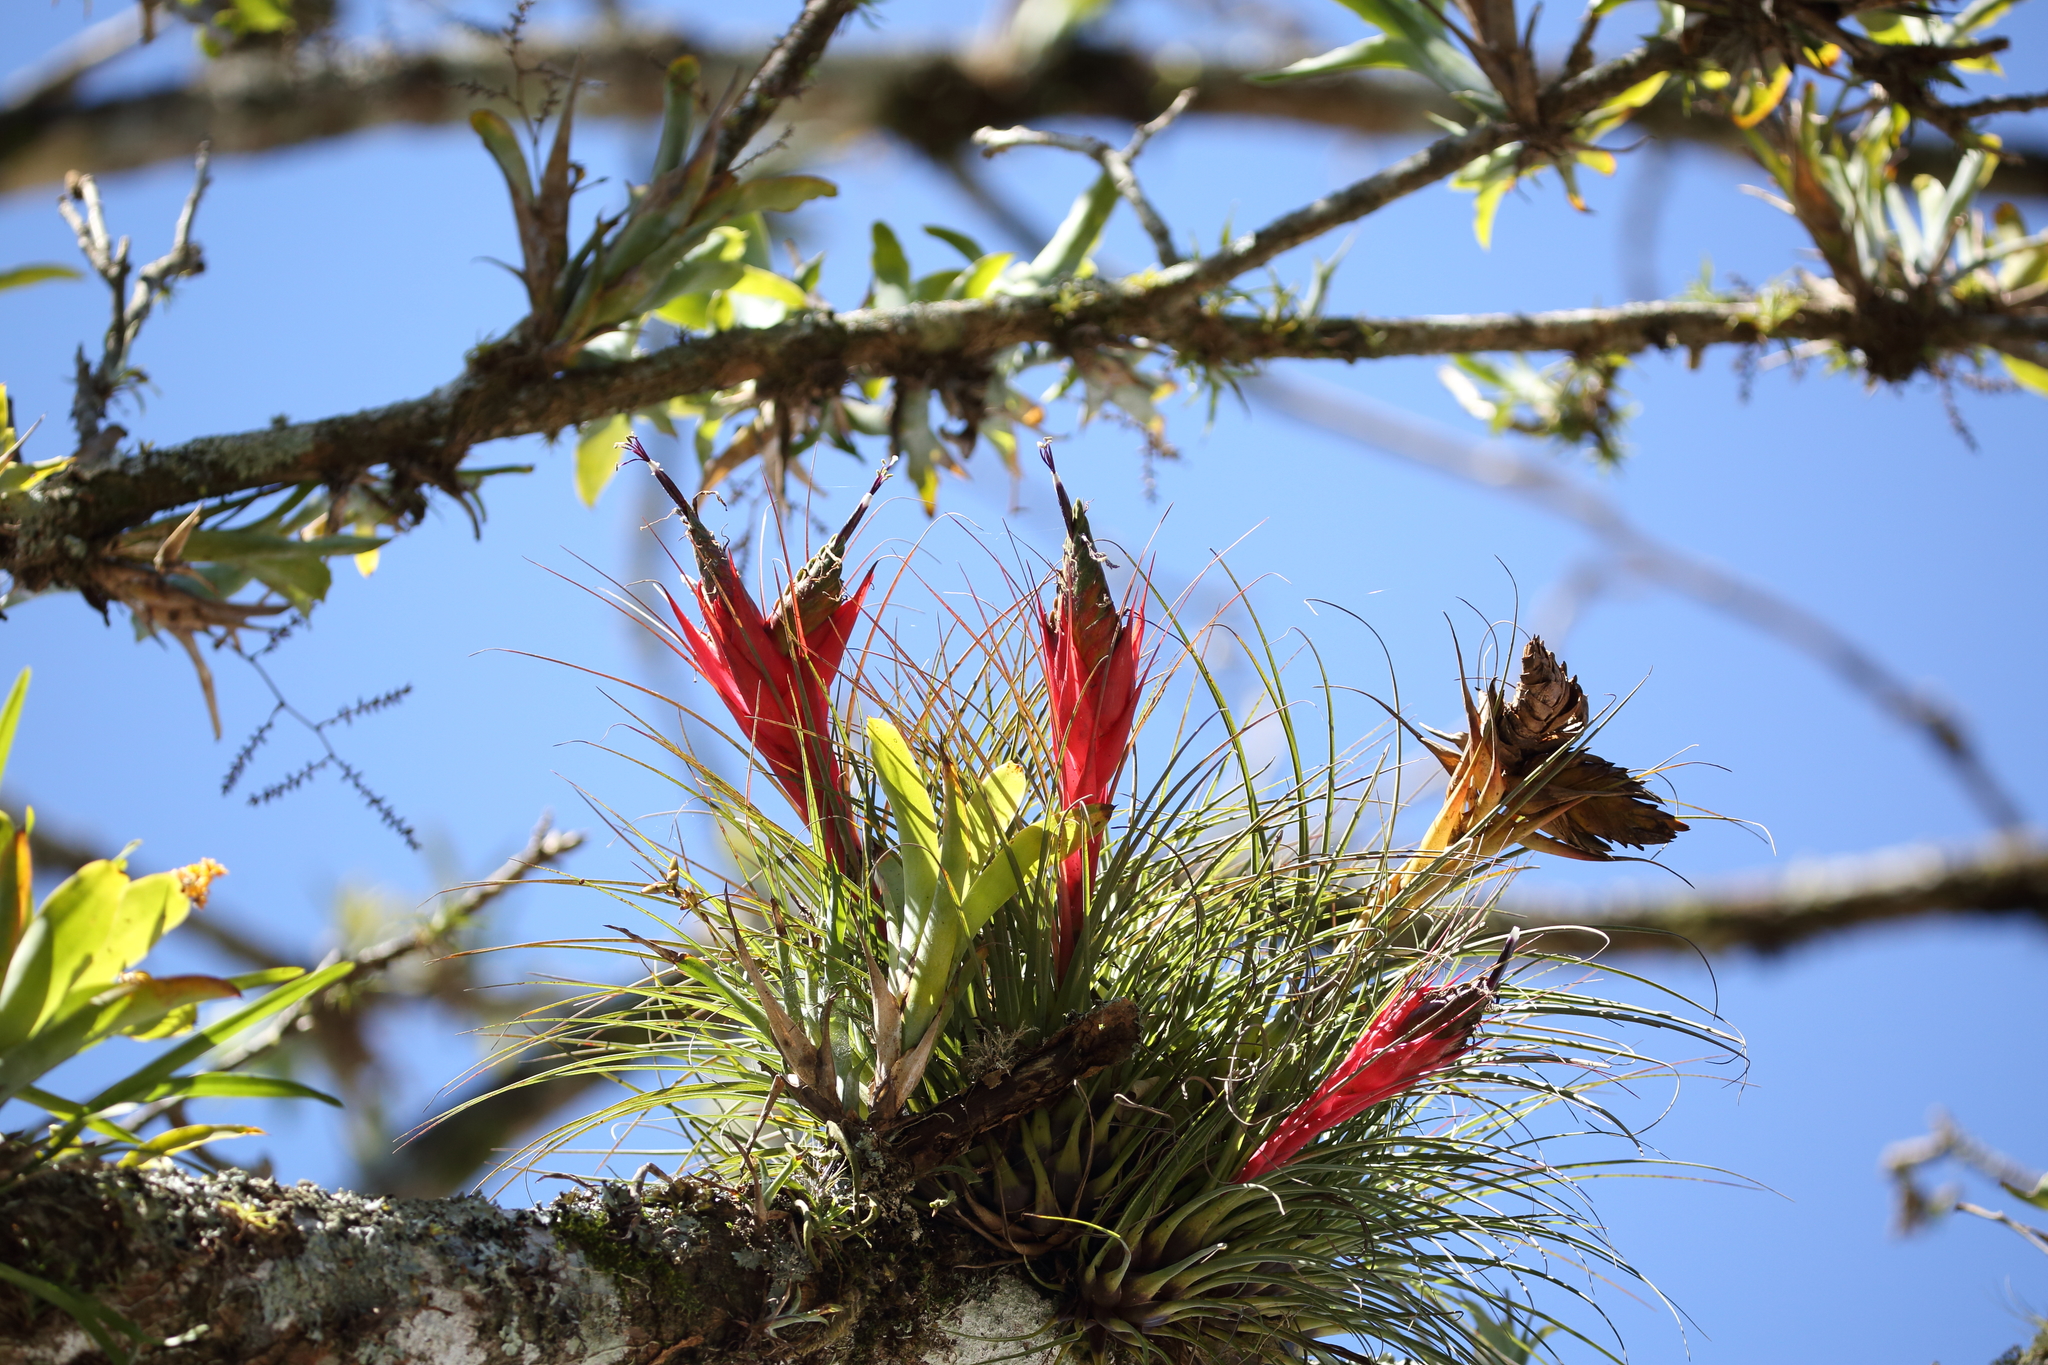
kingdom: Plantae
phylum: Tracheophyta
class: Liliopsida
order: Poales
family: Bromeliaceae
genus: Tillandsia
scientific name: Tillandsia punctulata
